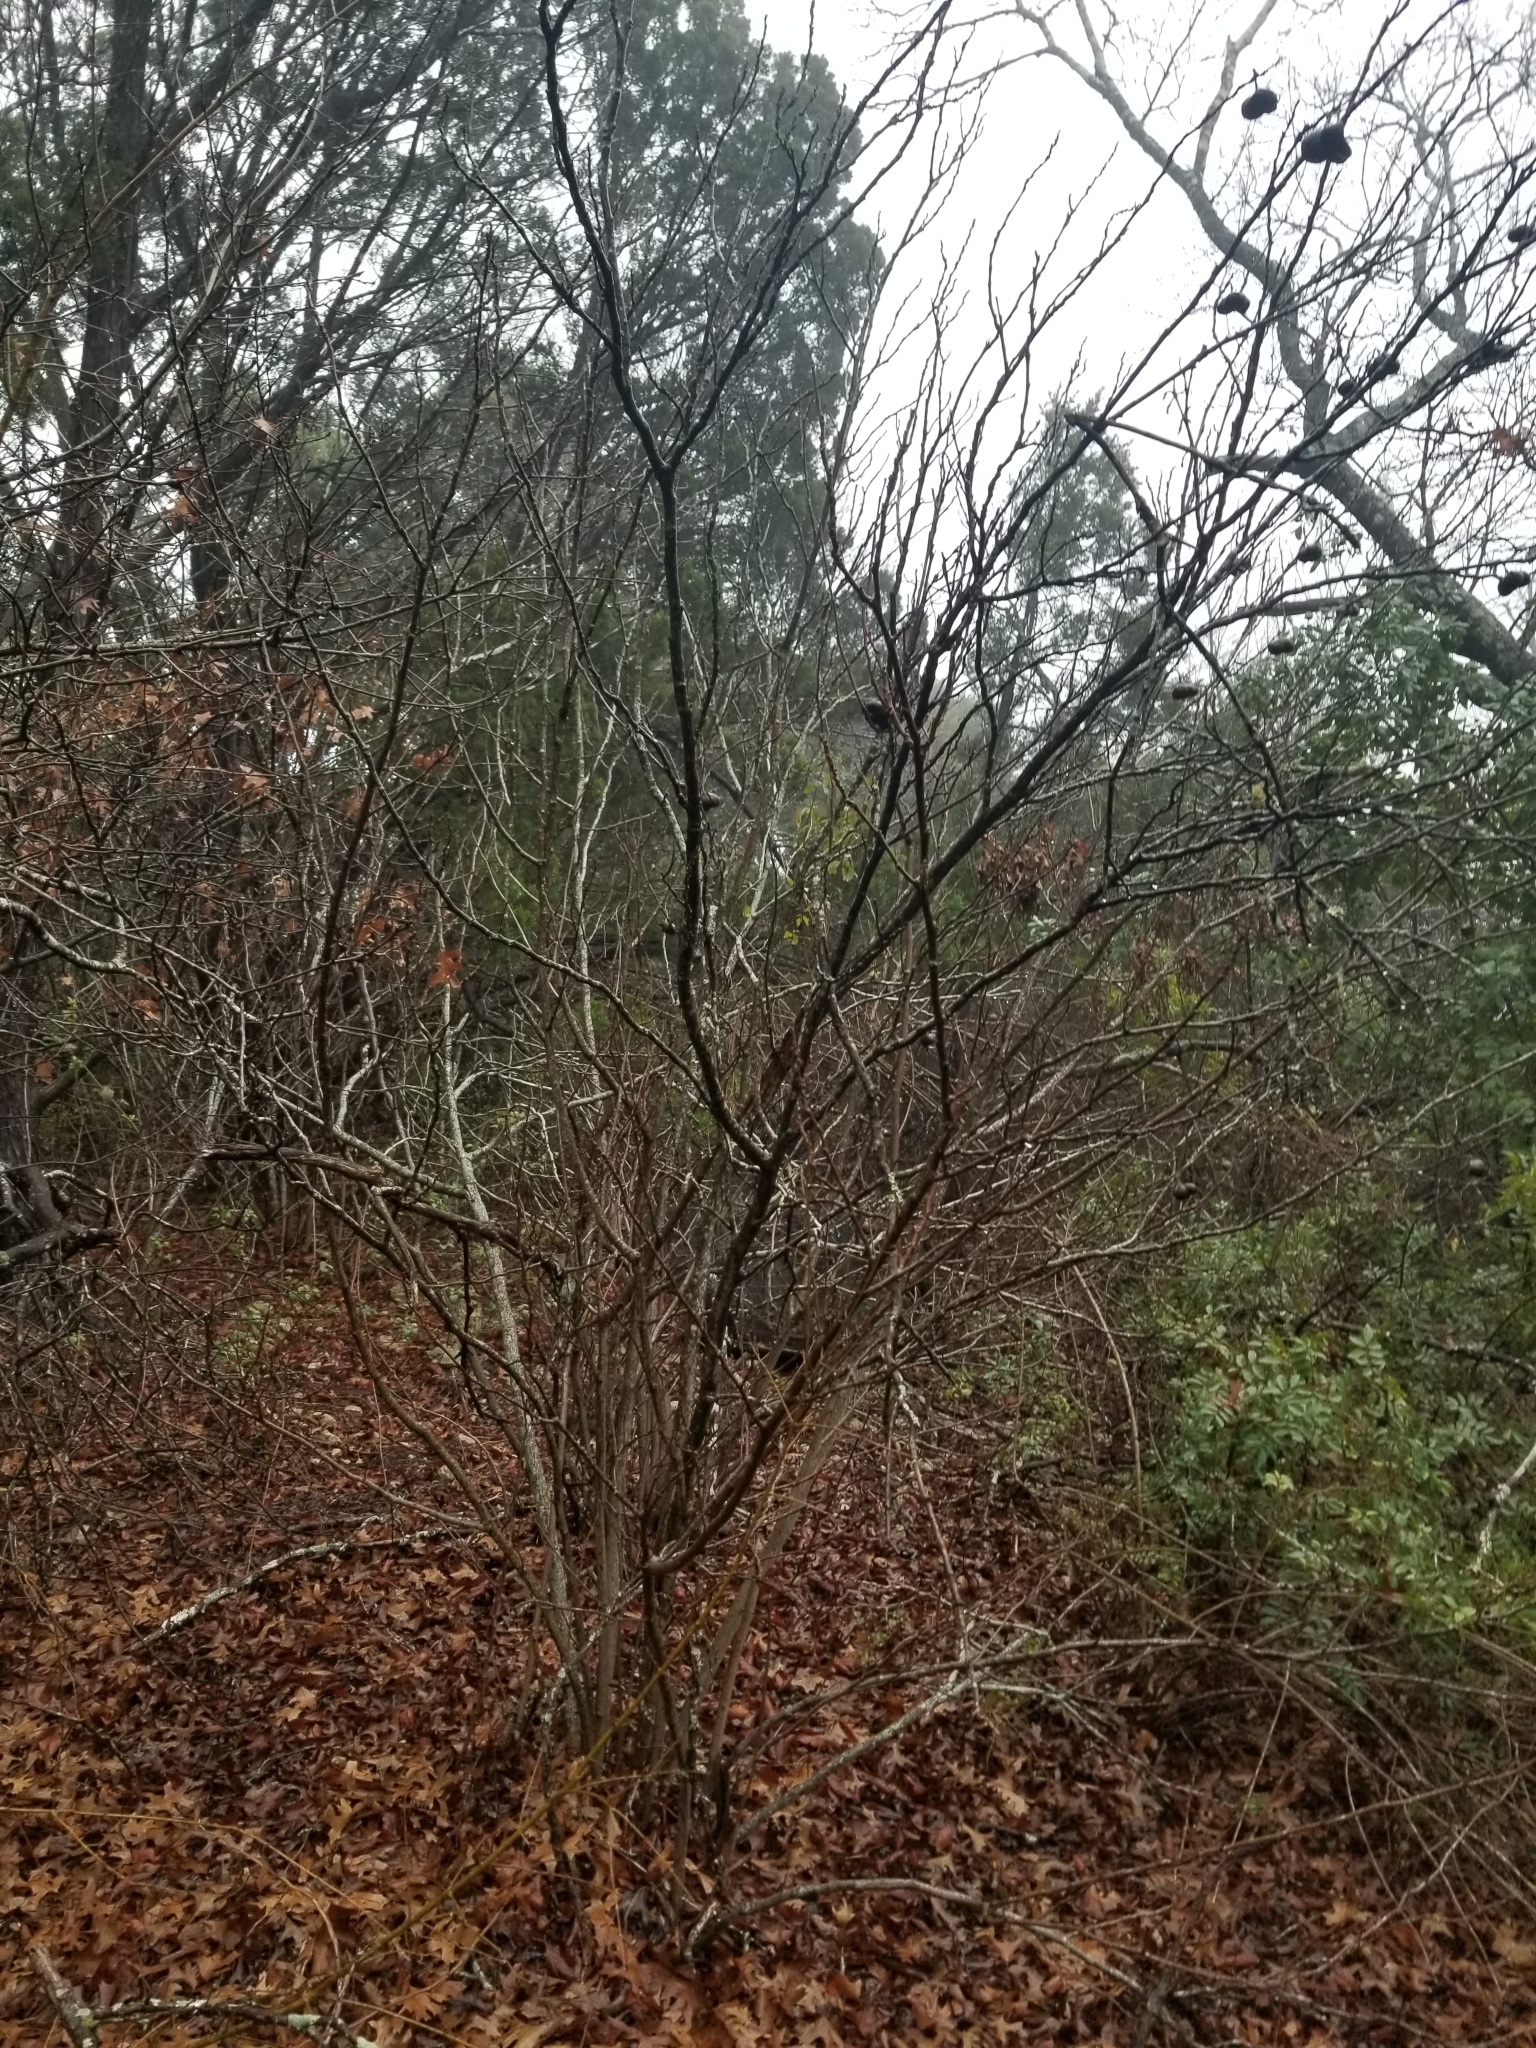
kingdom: Plantae
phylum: Tracheophyta
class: Magnoliopsida
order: Sapindales
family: Sapindaceae
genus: Ungnadia
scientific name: Ungnadia speciosa
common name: Texas-buckeye
